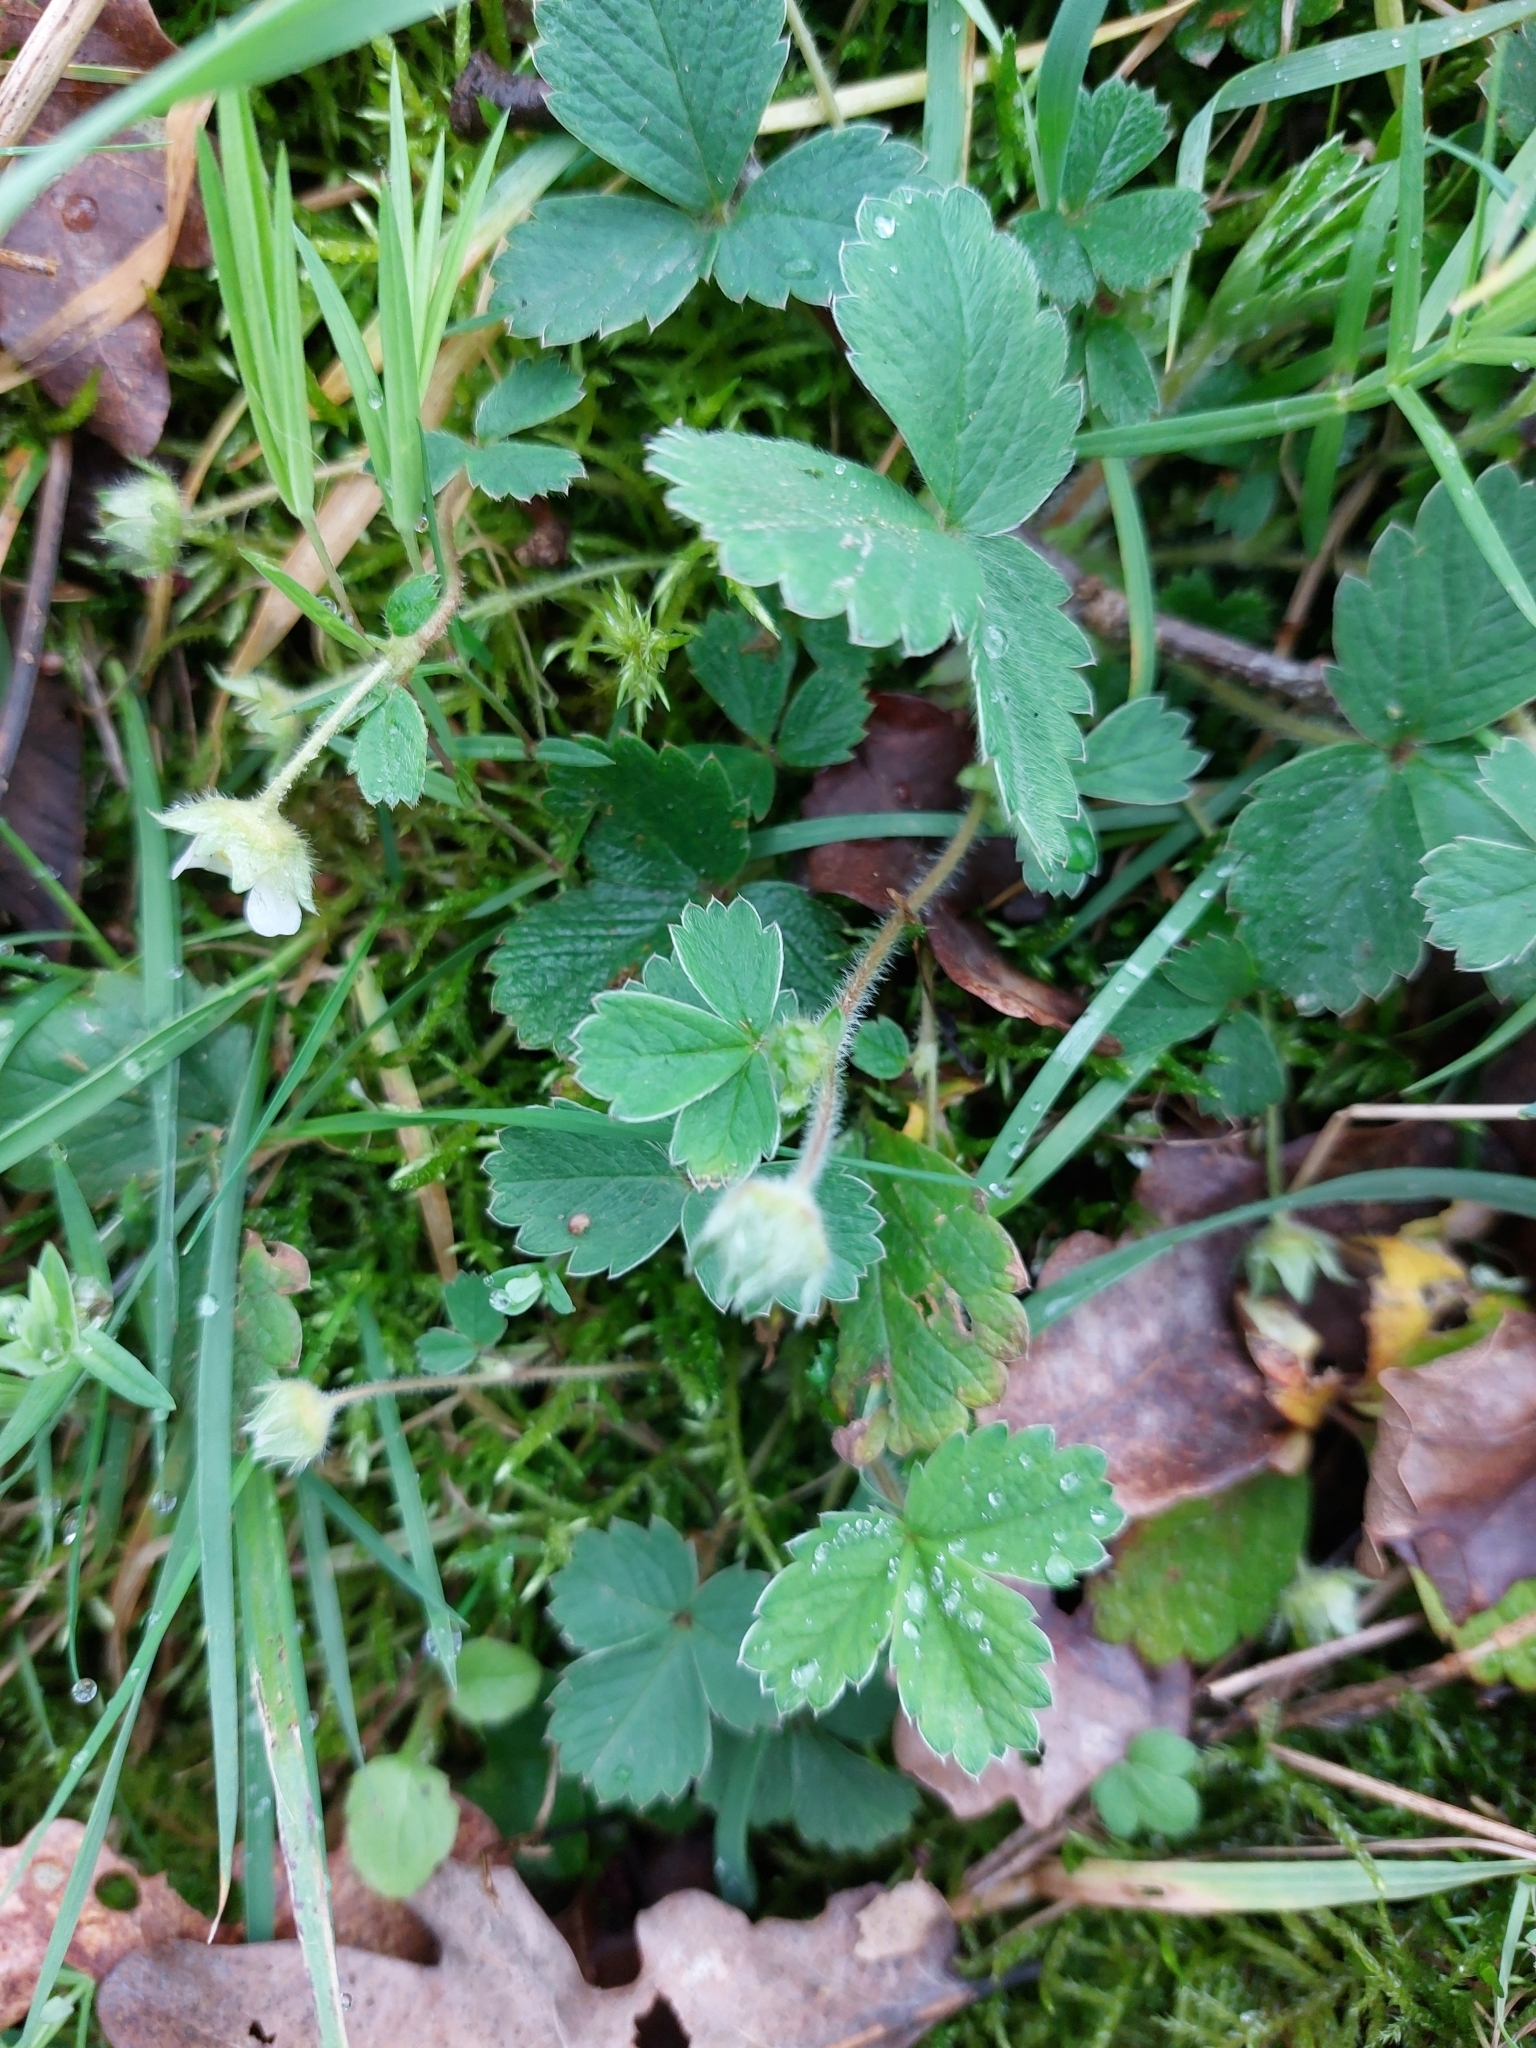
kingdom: Plantae
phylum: Tracheophyta
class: Magnoliopsida
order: Rosales
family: Rosaceae
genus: Potentilla
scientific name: Potentilla sterilis
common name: Barren strawberry
